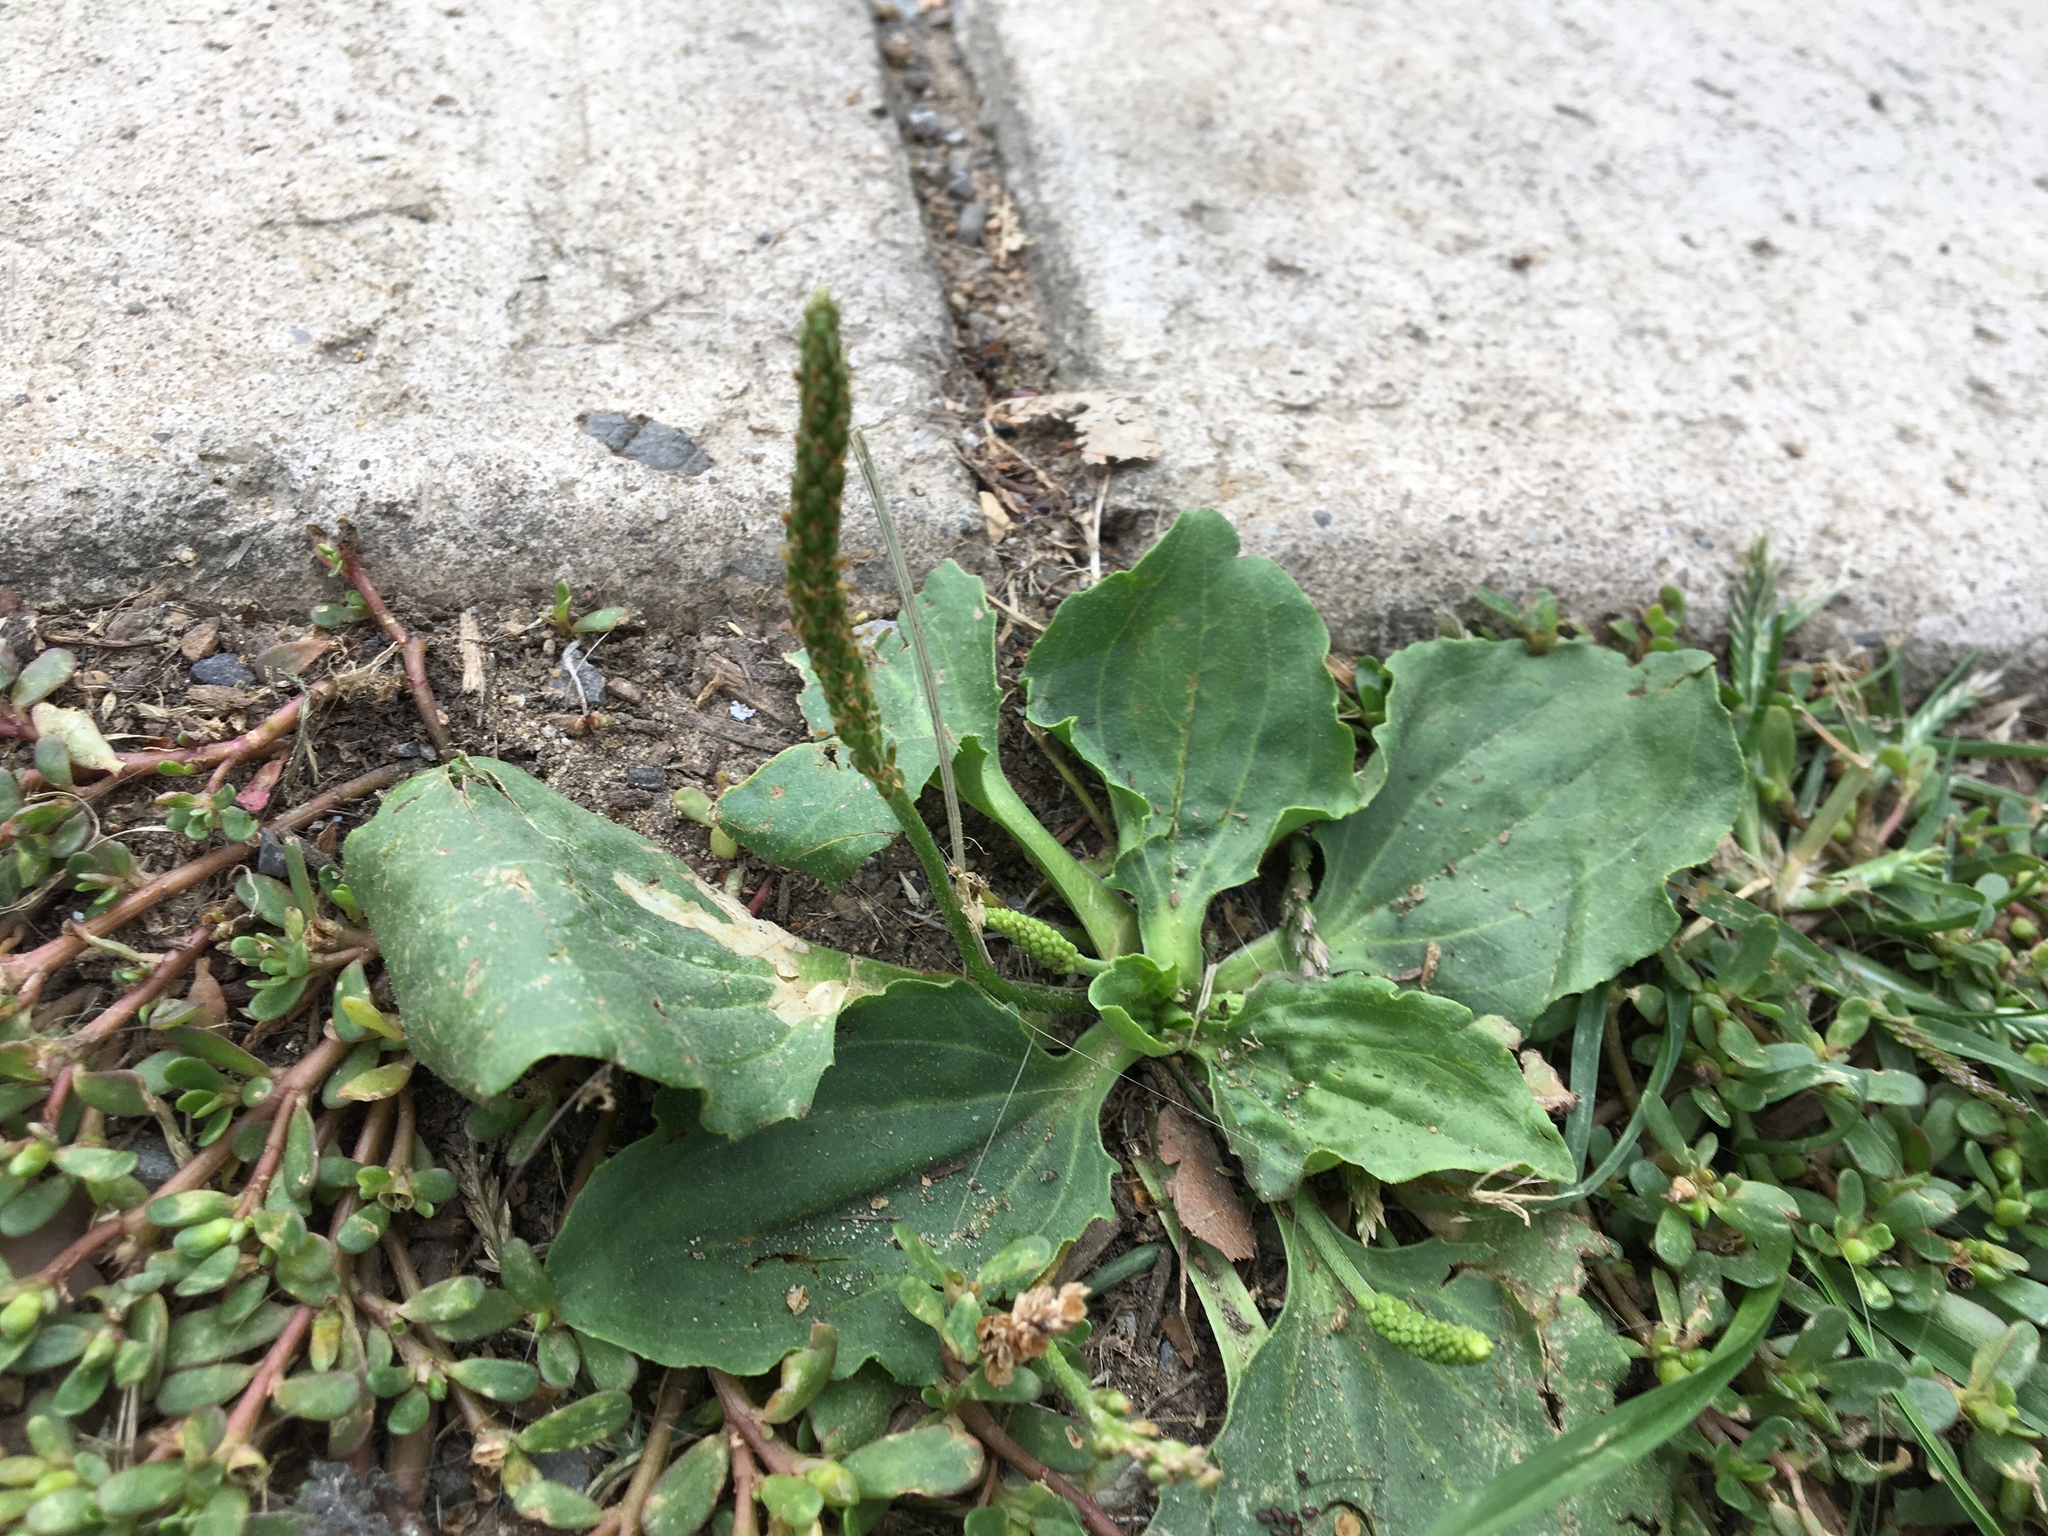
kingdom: Plantae
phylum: Tracheophyta
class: Magnoliopsida
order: Lamiales
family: Plantaginaceae
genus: Plantago
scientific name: Plantago major
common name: Common plantain
